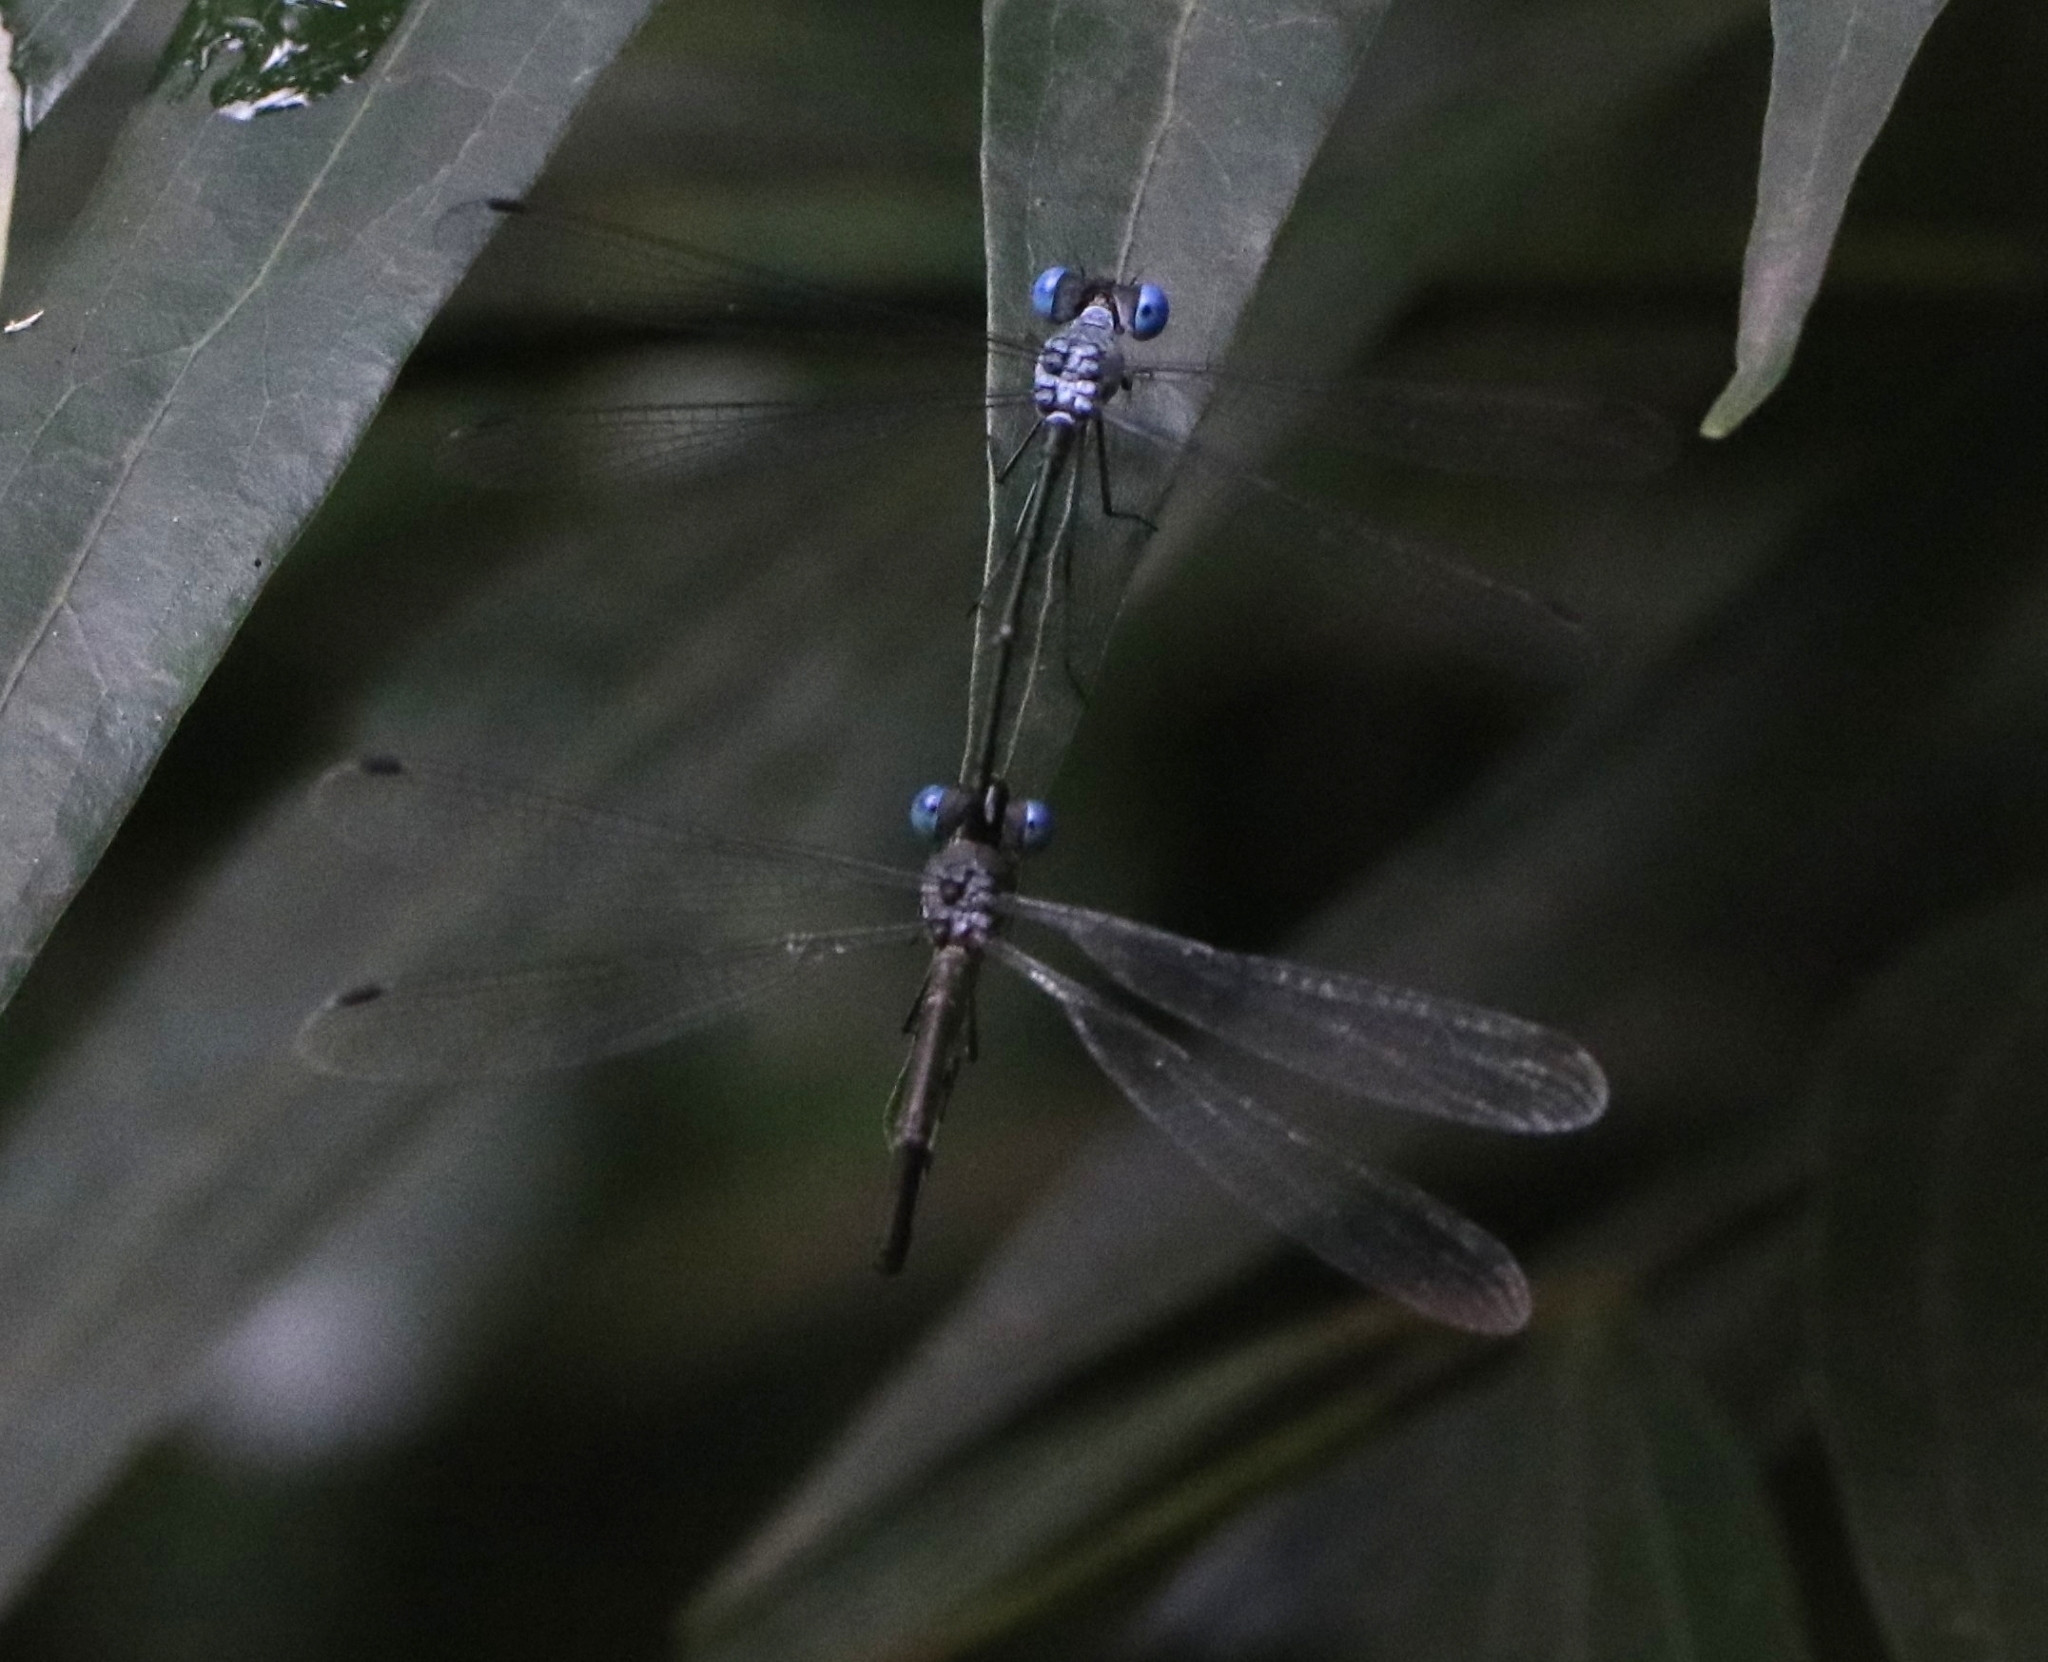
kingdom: Animalia
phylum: Arthropoda
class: Insecta
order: Odonata
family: Lestidae
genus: Lestes
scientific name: Lestes dorothea
